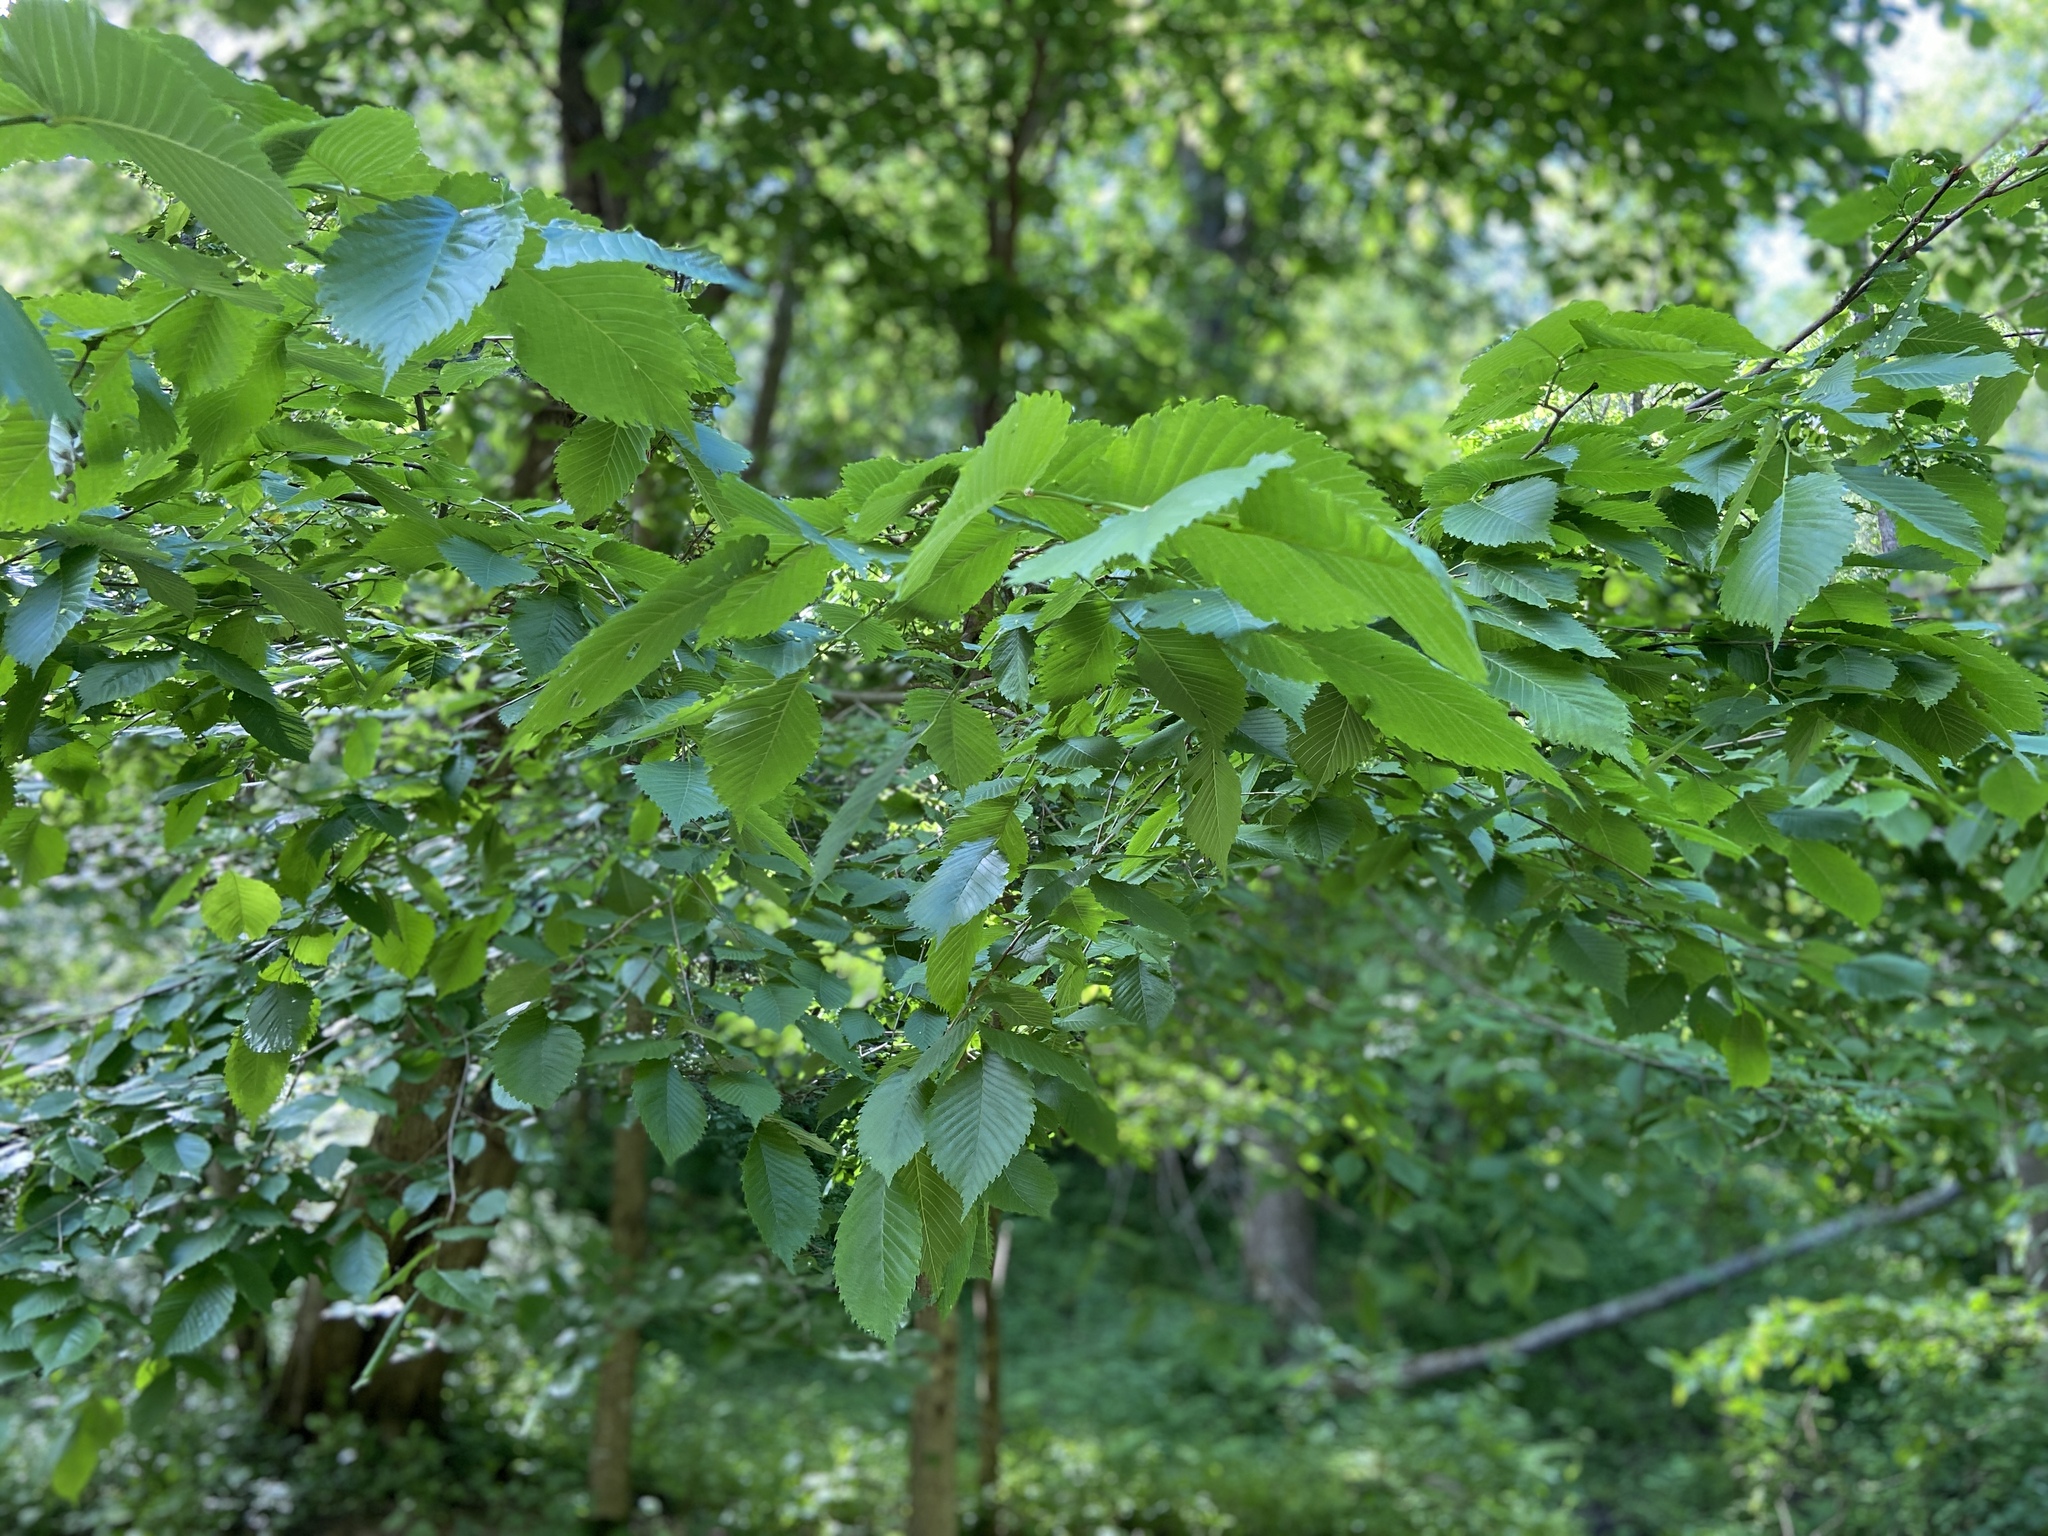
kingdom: Plantae
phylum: Tracheophyta
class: Magnoliopsida
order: Rosales
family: Ulmaceae
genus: Ulmus
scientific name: Ulmus laevis
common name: European white-elm
